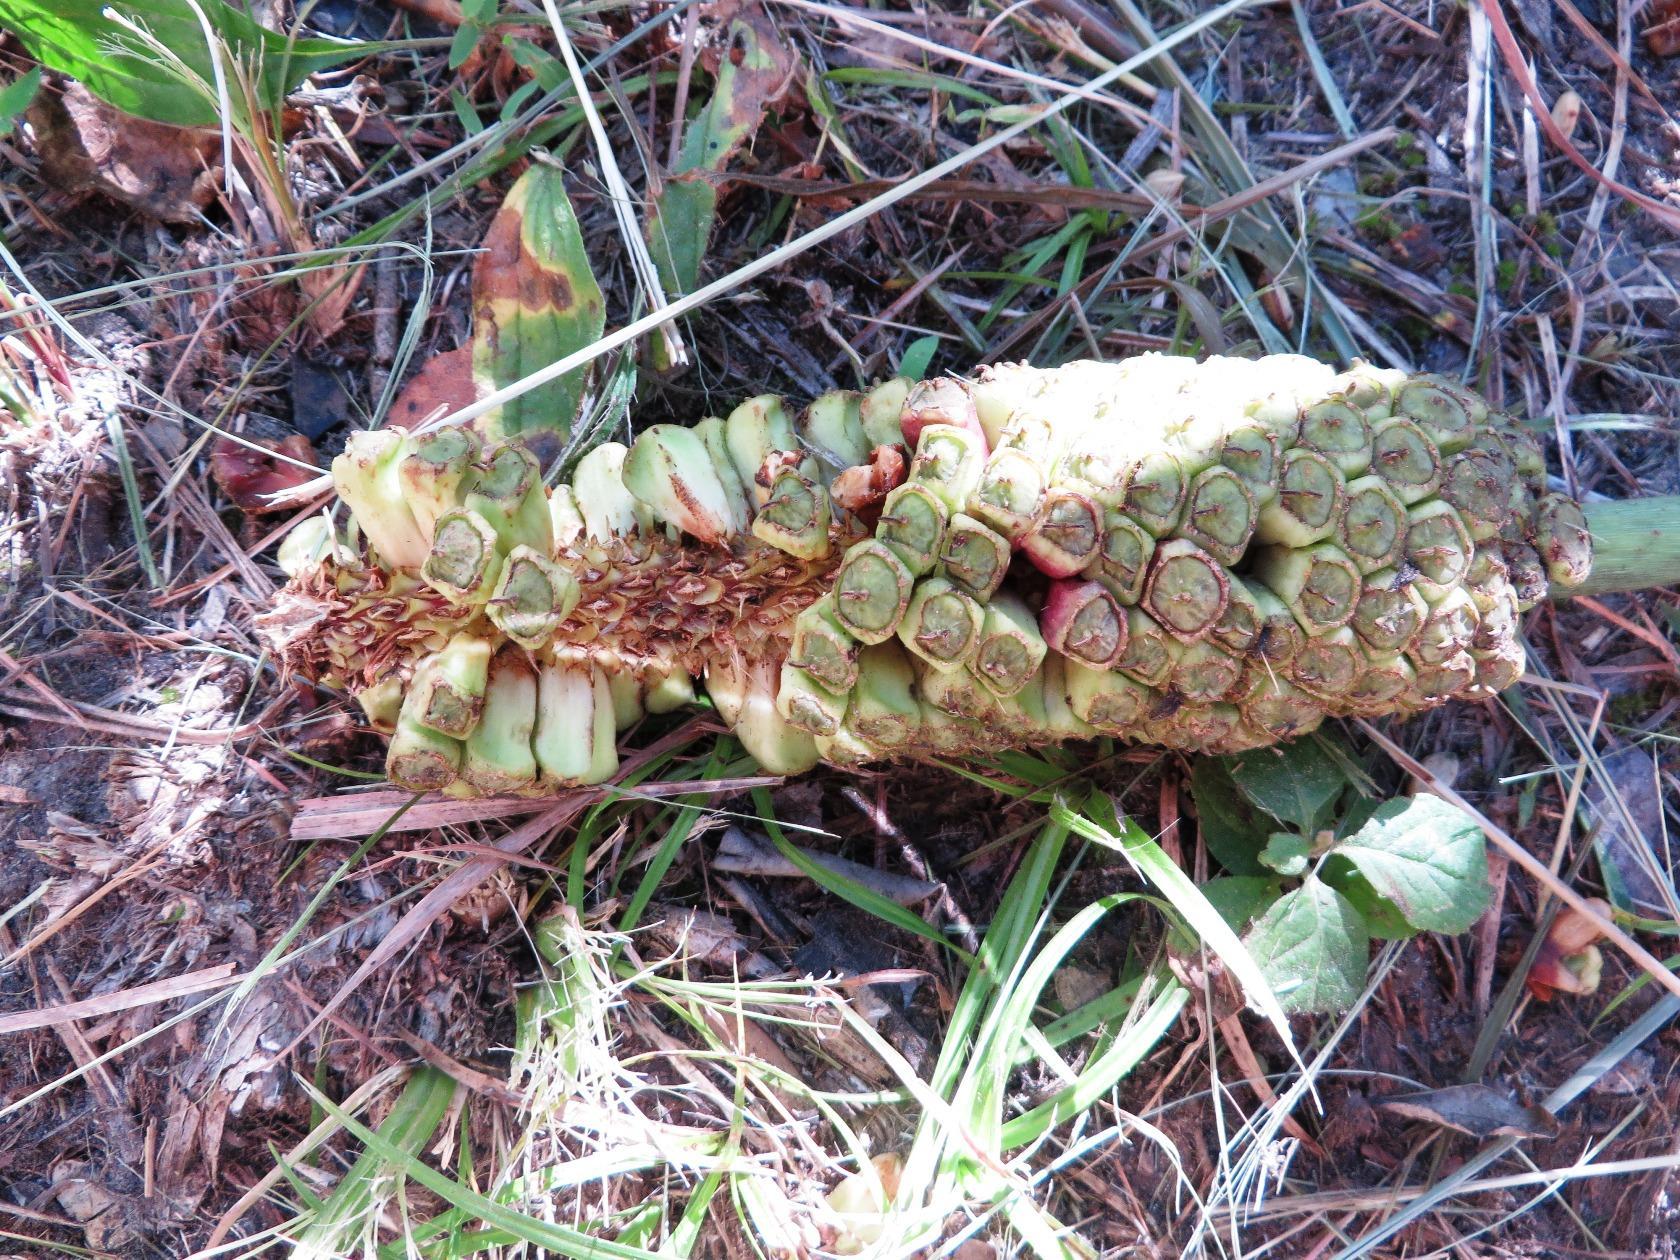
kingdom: Plantae
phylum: Tracheophyta
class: Magnoliopsida
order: Apiales
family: Araliaceae
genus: Cussonia
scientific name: Cussonia spicata
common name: Common cabbagetree
